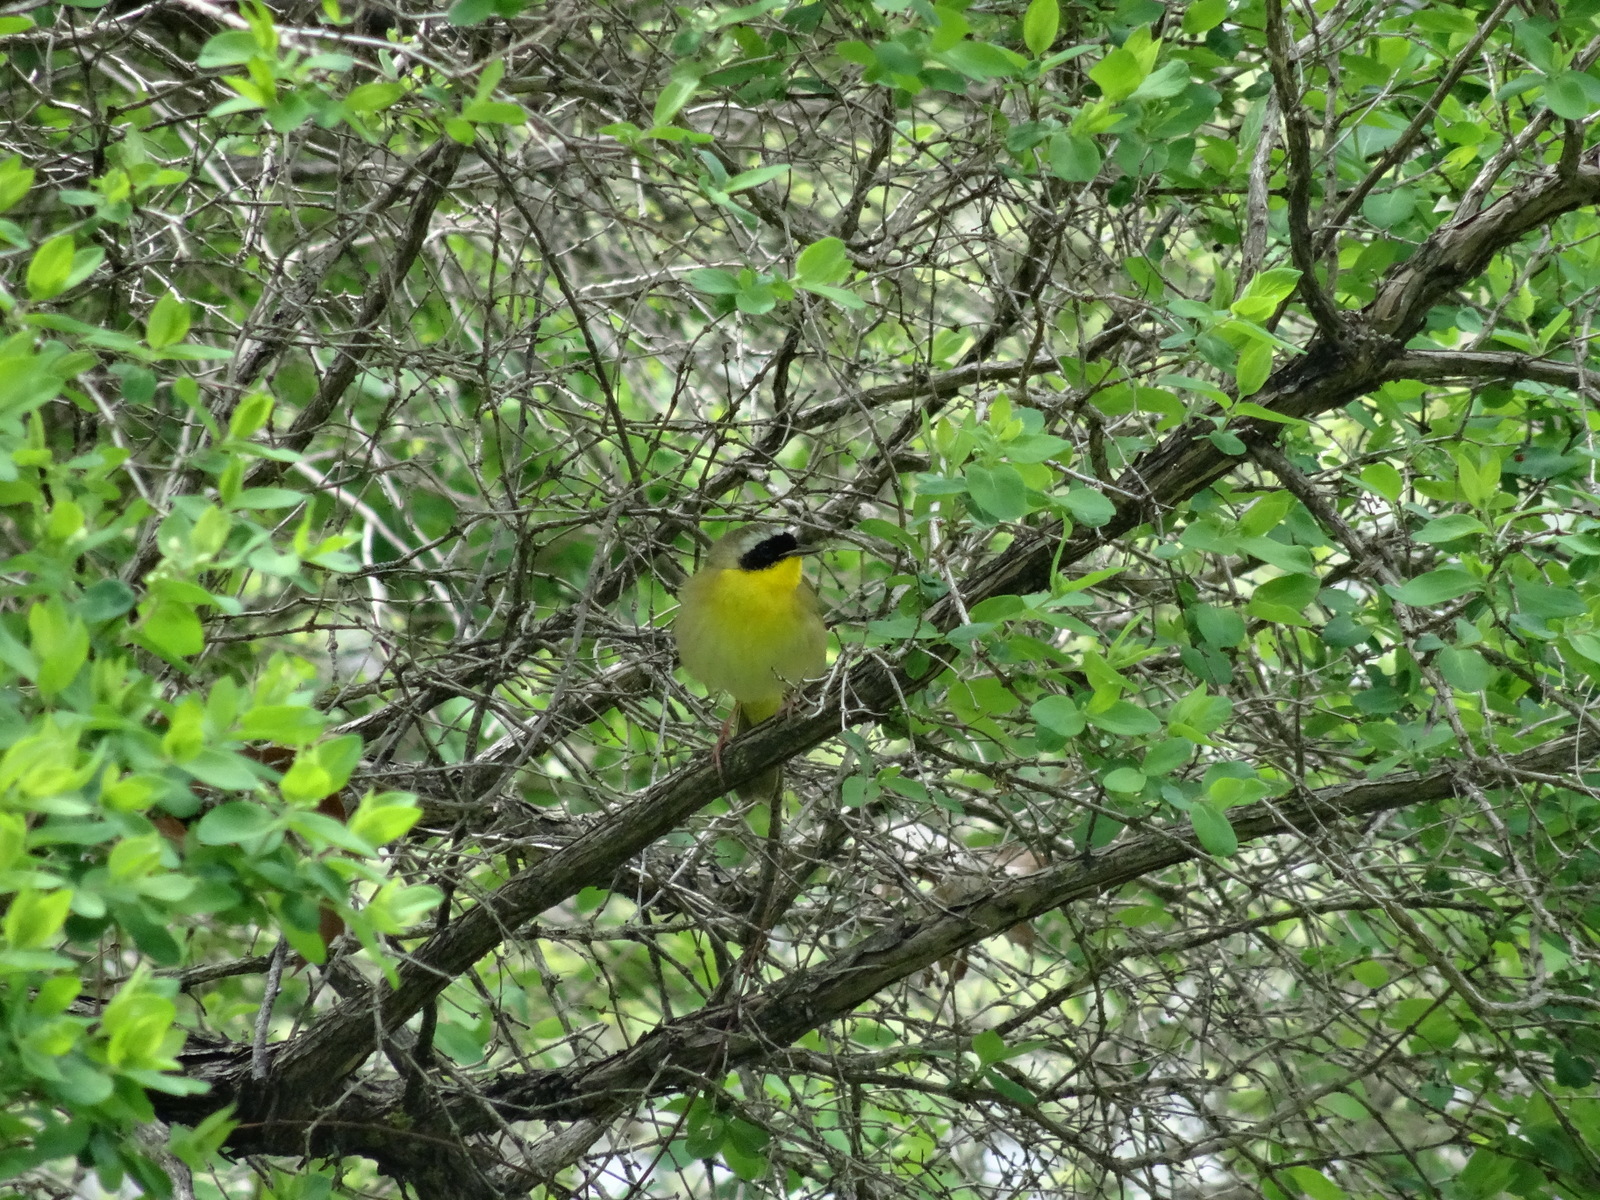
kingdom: Animalia
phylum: Chordata
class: Aves
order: Passeriformes
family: Parulidae
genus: Geothlypis
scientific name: Geothlypis trichas
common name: Common yellowthroat
